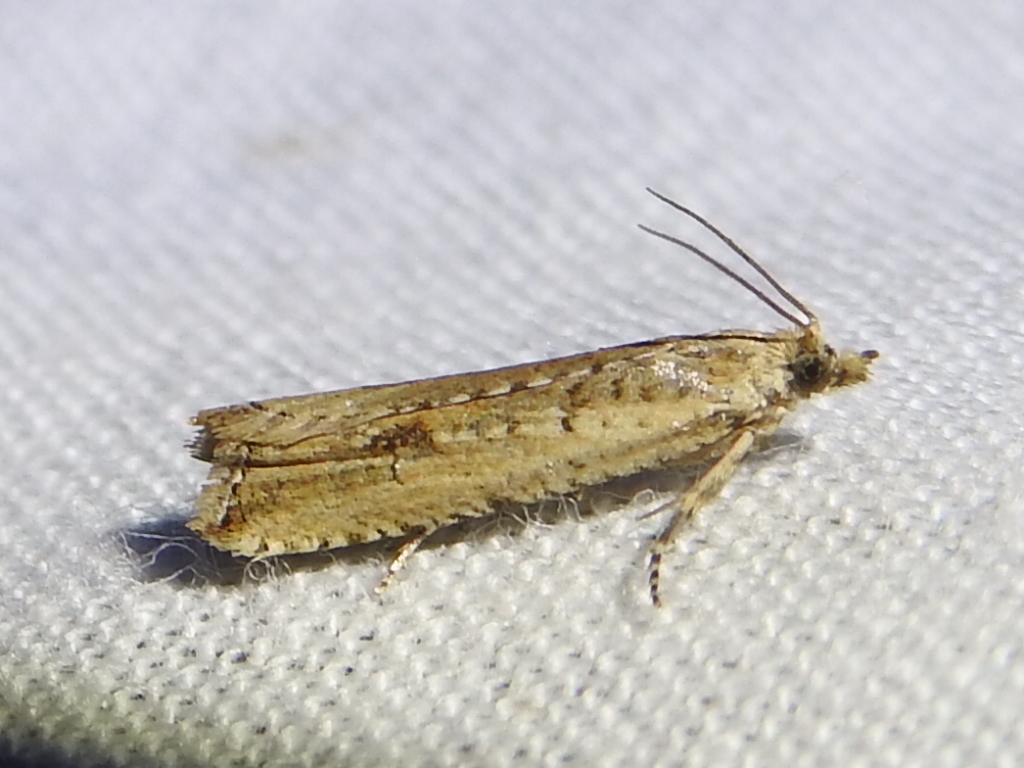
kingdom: Animalia
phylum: Arthropoda
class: Insecta
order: Lepidoptera
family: Tortricidae
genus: Bactra
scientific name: Bactra verutana
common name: Javelin moth
